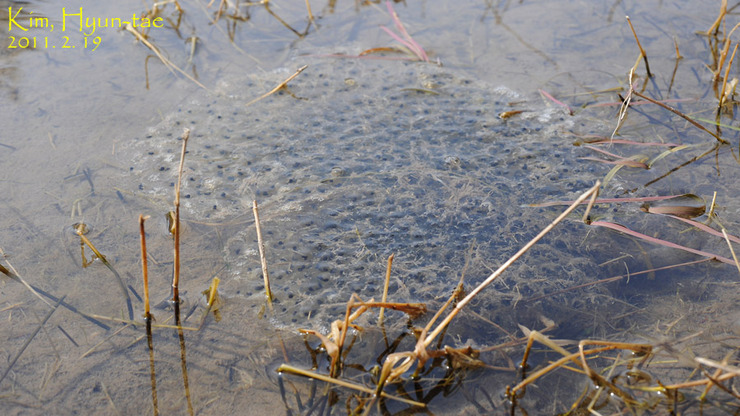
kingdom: Animalia
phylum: Chordata
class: Amphibia
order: Anura
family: Ranidae
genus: Rana
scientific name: Rana uenoi
